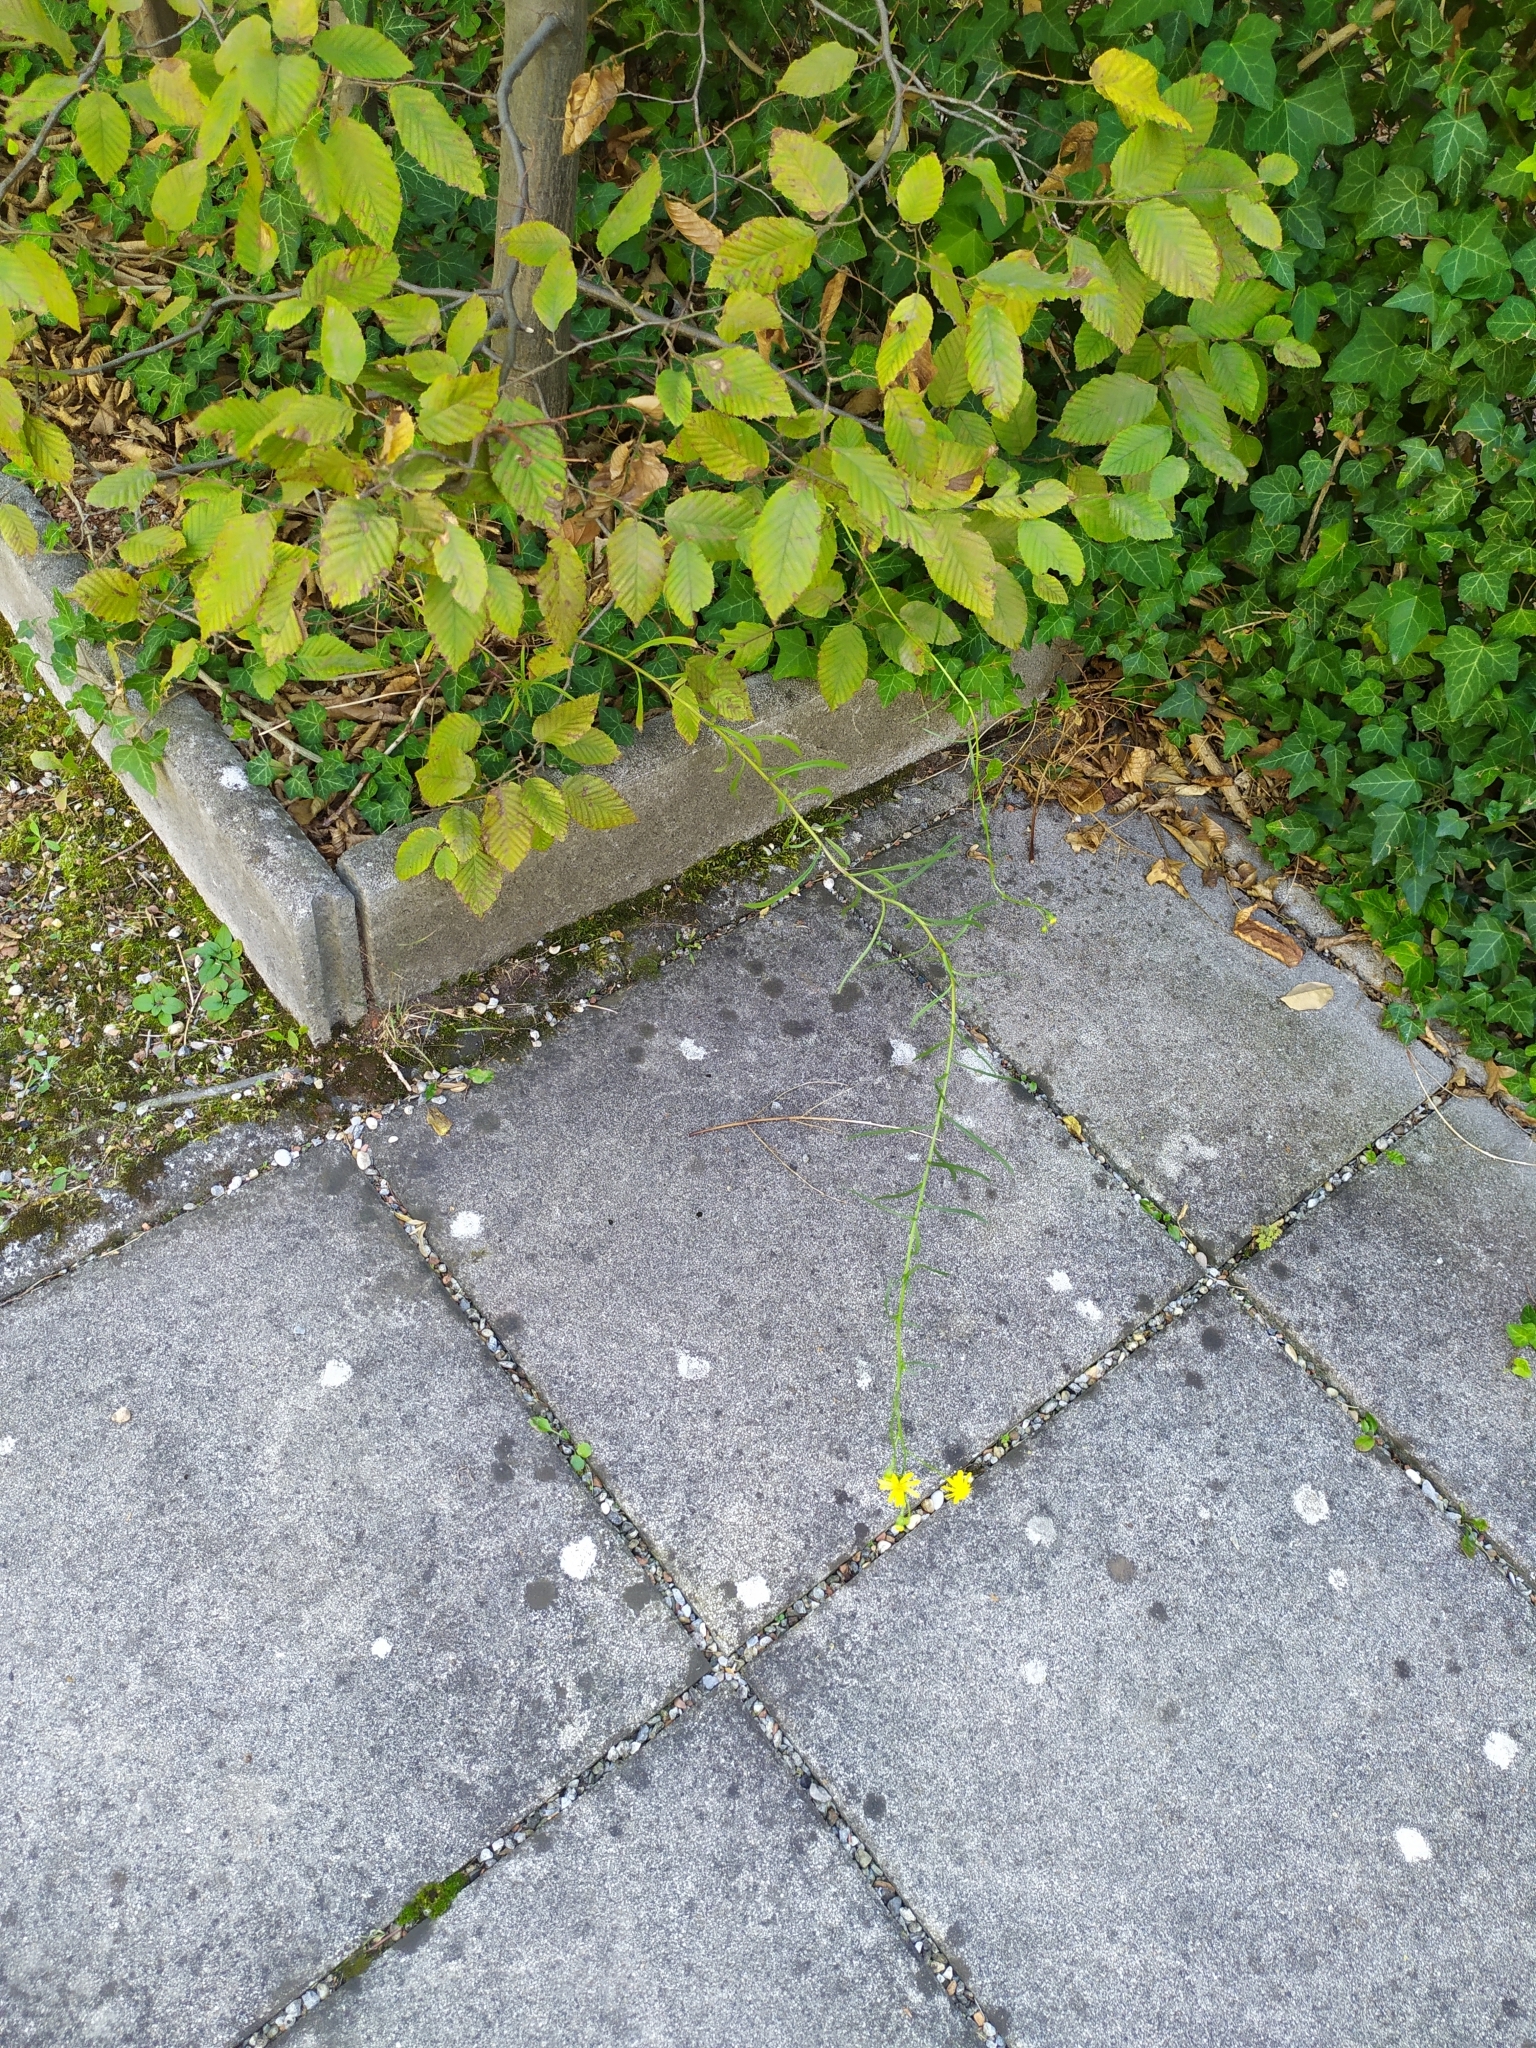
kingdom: Plantae
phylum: Tracheophyta
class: Magnoliopsida
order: Asterales
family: Asteraceae
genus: Senecio
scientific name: Senecio inaequidens
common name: Narrow-leaved ragwort
